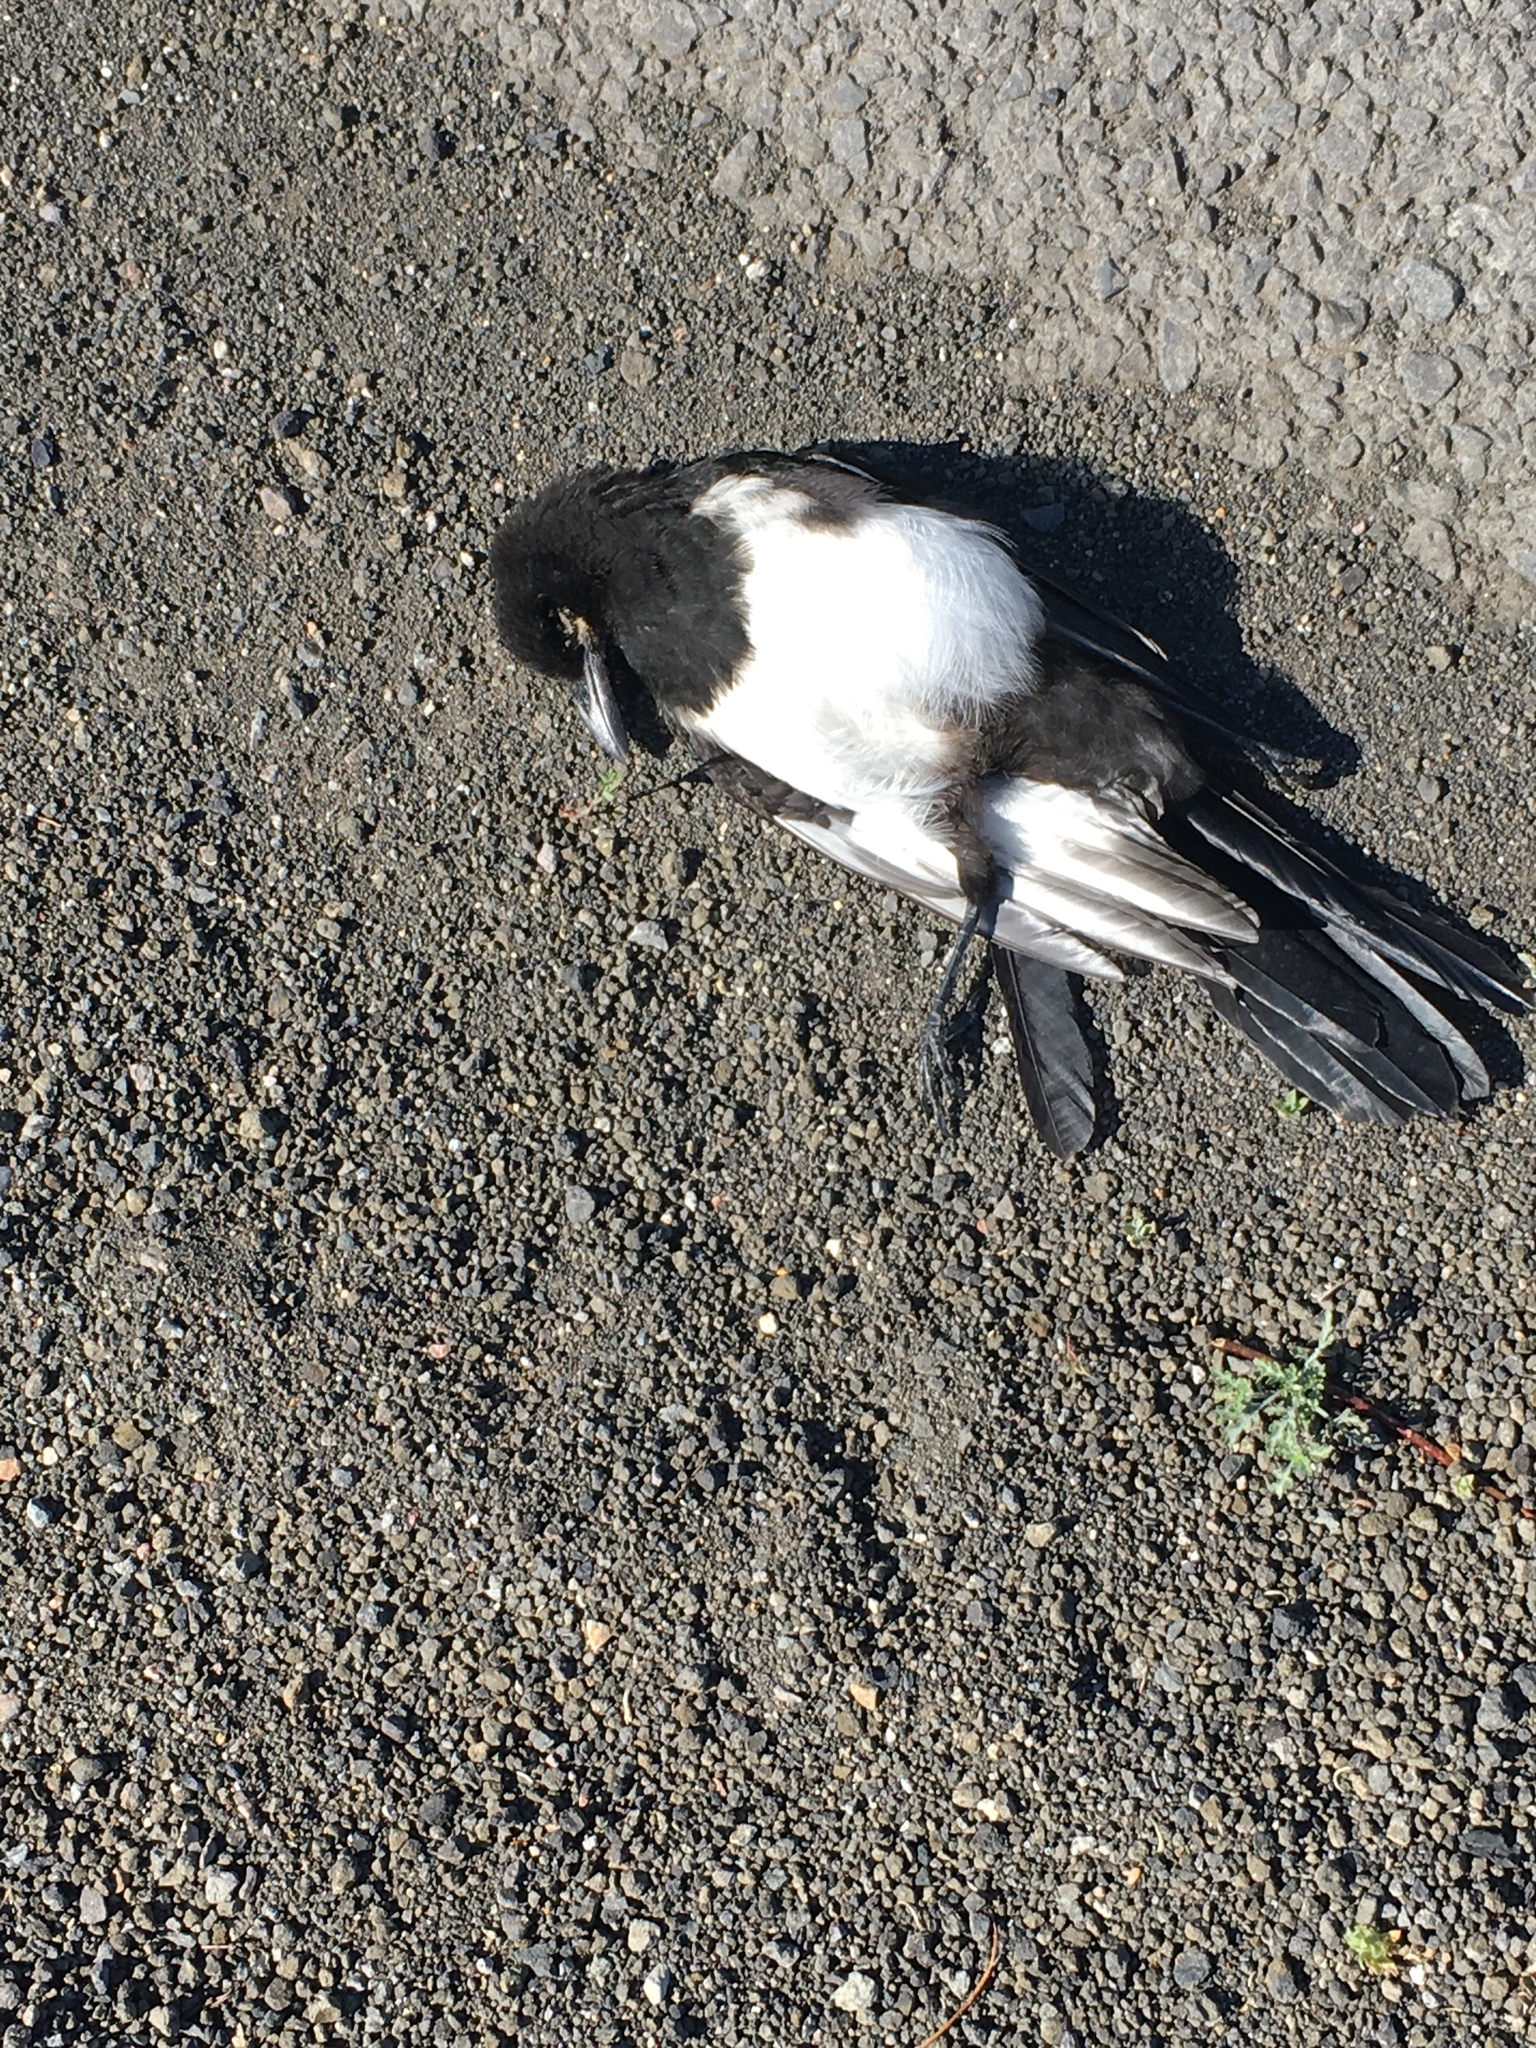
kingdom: Animalia
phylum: Chordata
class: Aves
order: Passeriformes
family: Corvidae
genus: Pica
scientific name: Pica hudsonia
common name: Black-billed magpie
